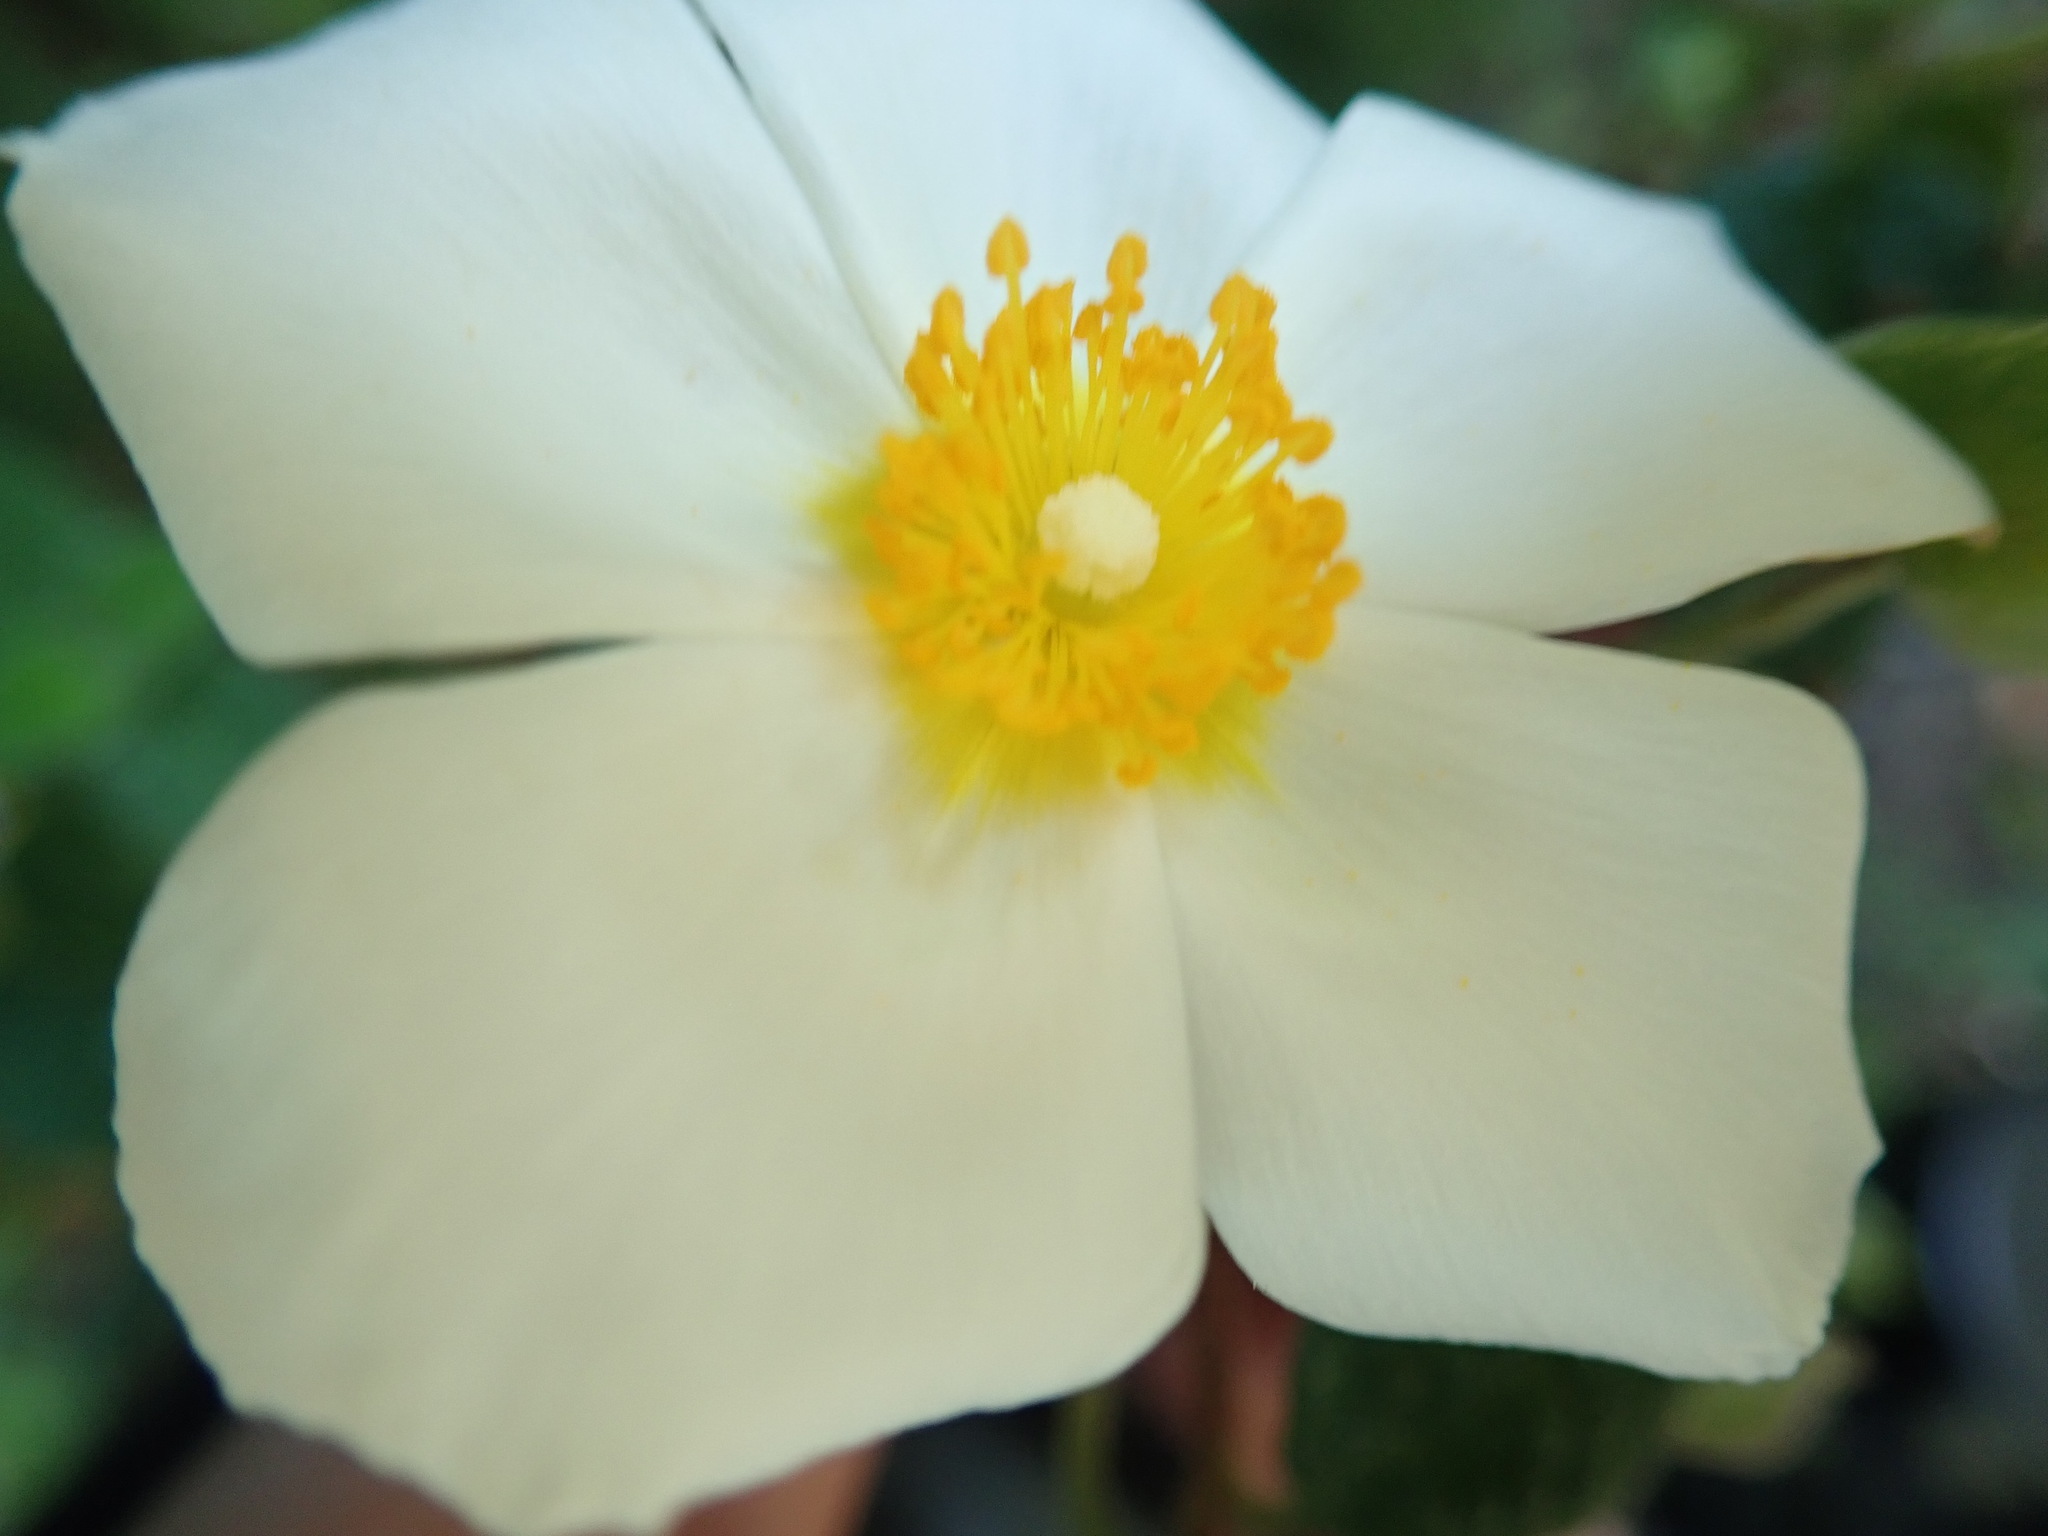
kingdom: Plantae
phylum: Tracheophyta
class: Magnoliopsida
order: Malvales
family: Cistaceae
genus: Cistus
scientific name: Cistus salviifolius
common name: Salvia cistus
